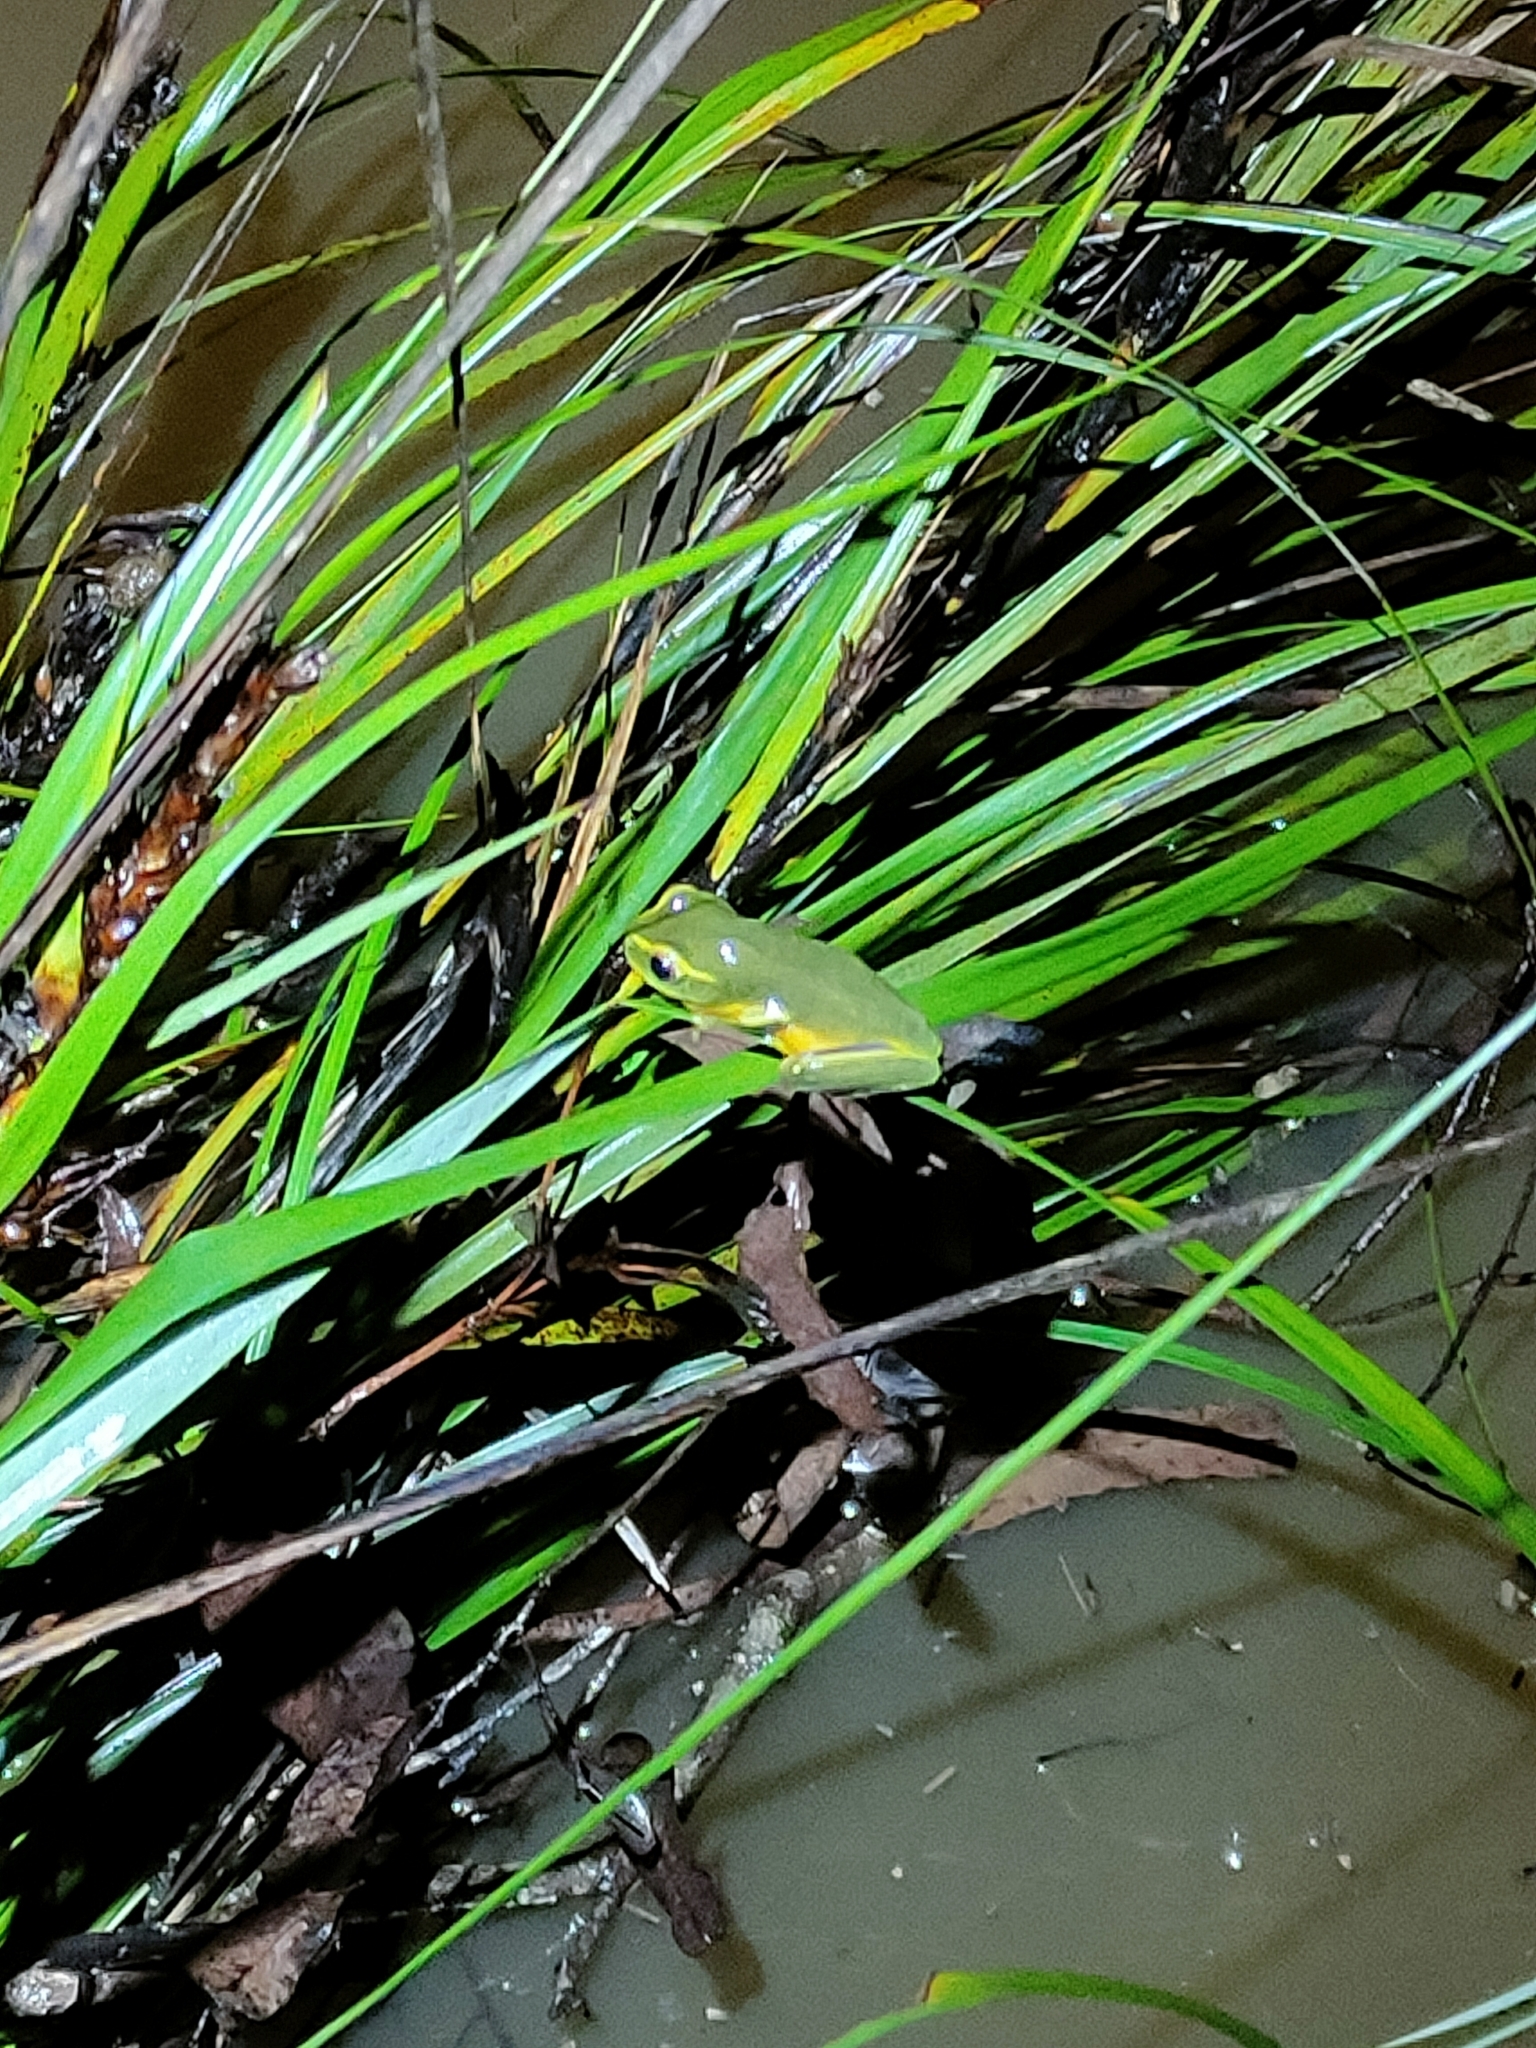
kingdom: Animalia
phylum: Chordata
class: Amphibia
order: Anura
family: Pelodryadidae
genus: Ranoidea
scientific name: Ranoidea gracilenta
